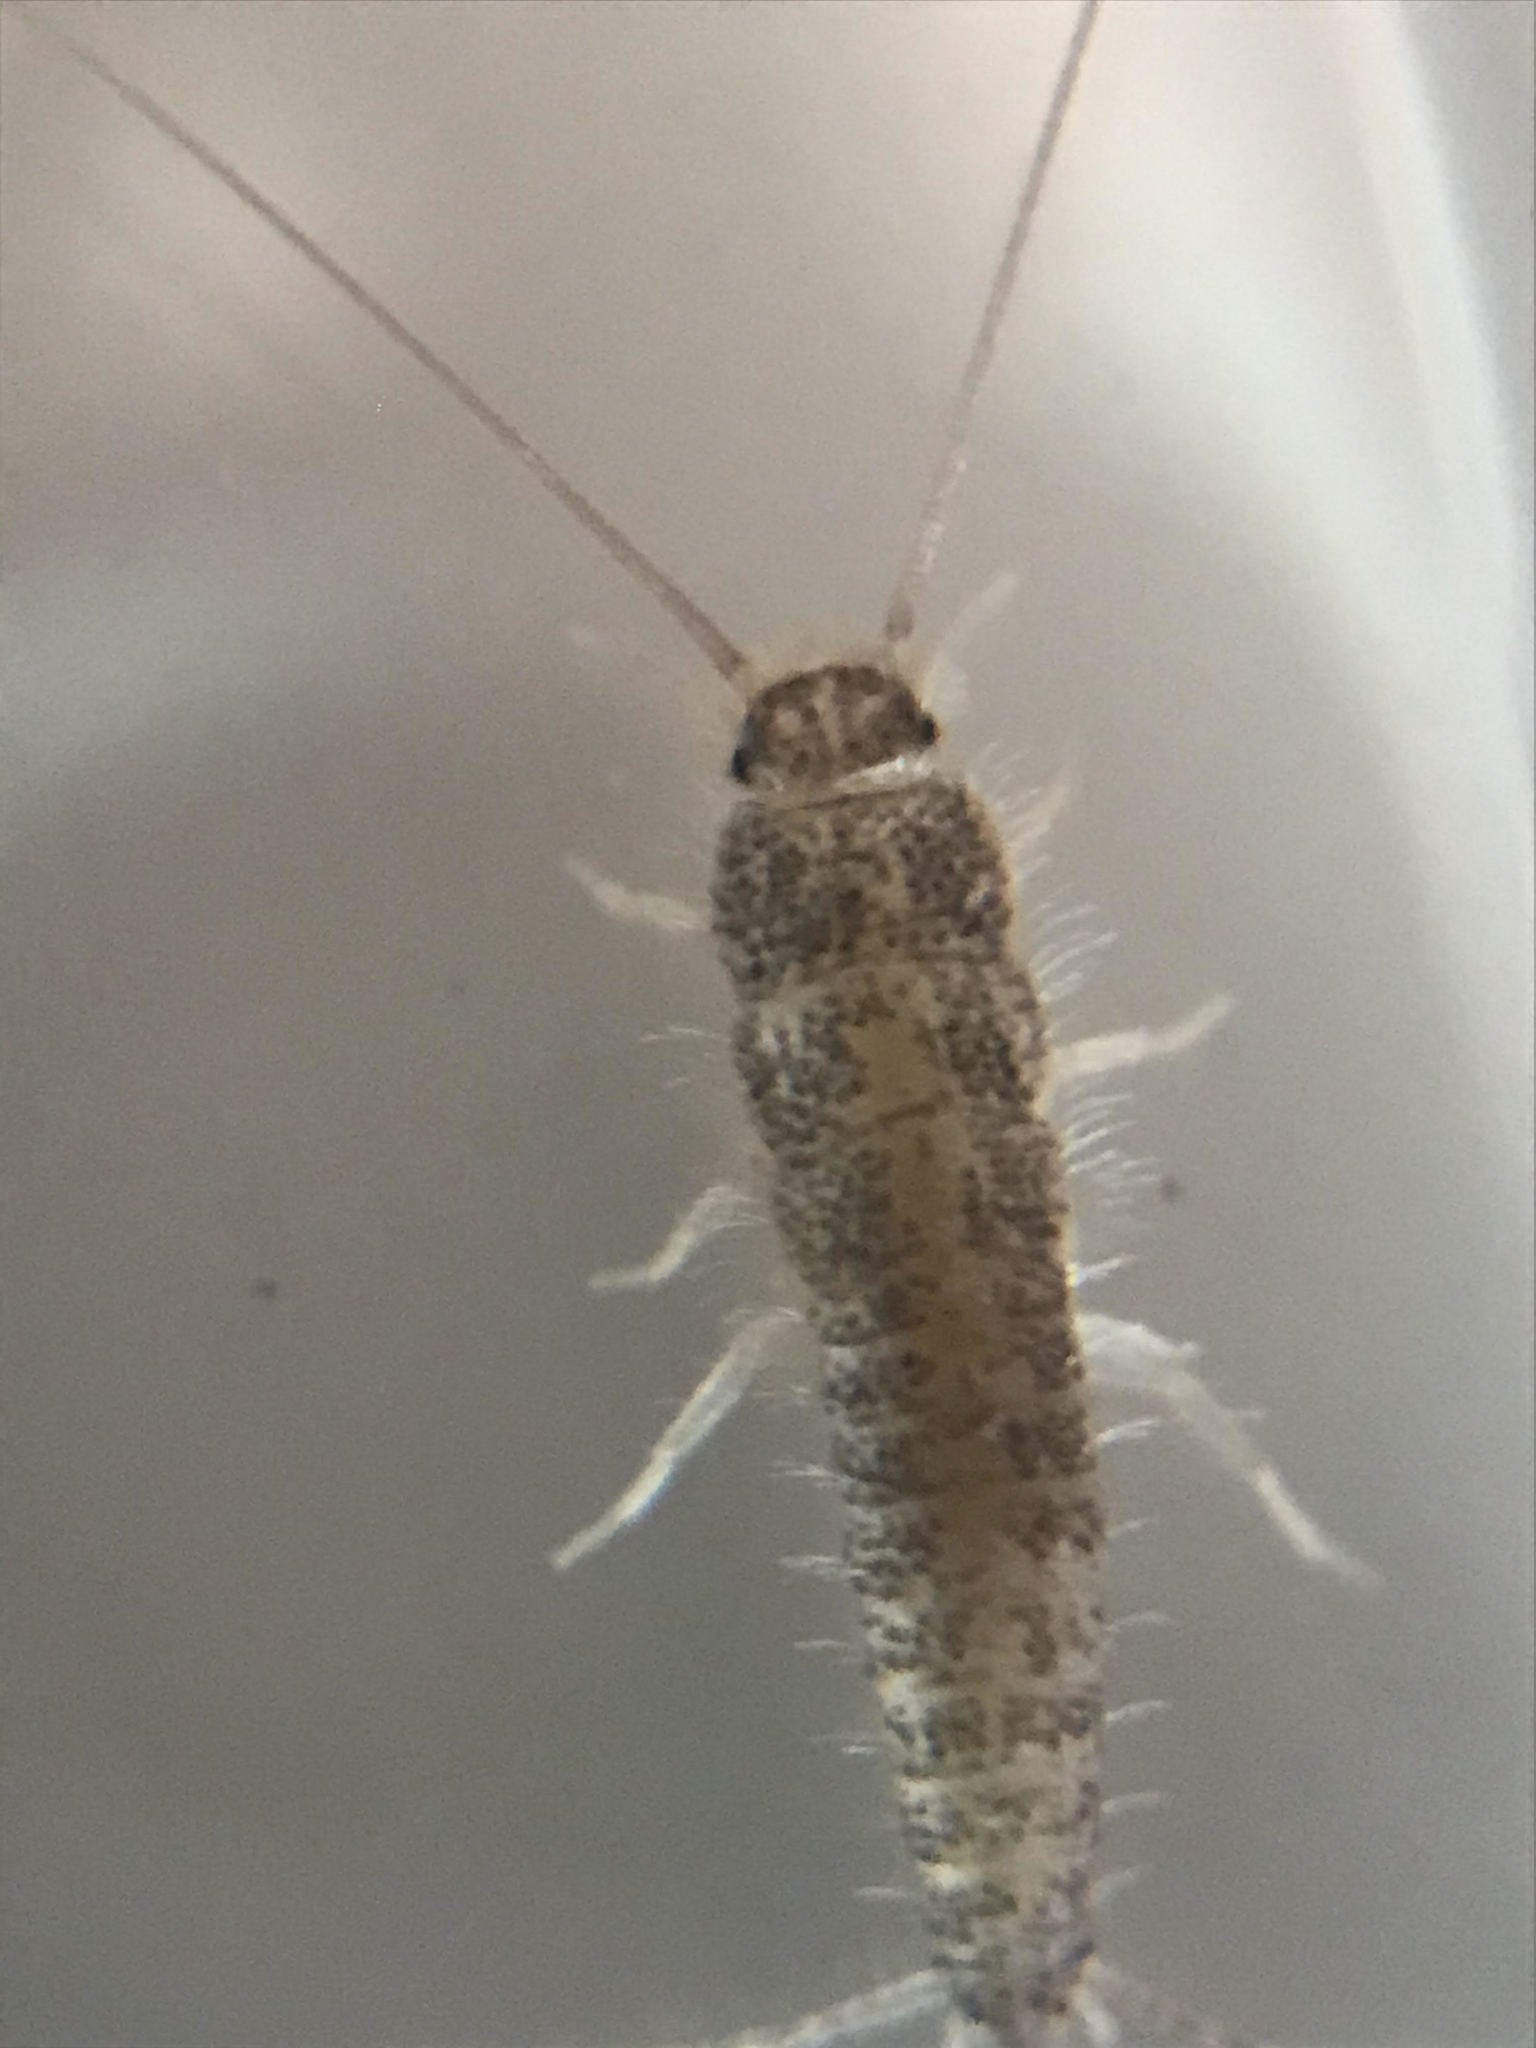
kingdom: Animalia
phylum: Arthropoda
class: Insecta
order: Zygentoma
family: Lepismatidae
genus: Ctenolepisma
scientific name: Ctenolepisma longicaudatum
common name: Silverfish
